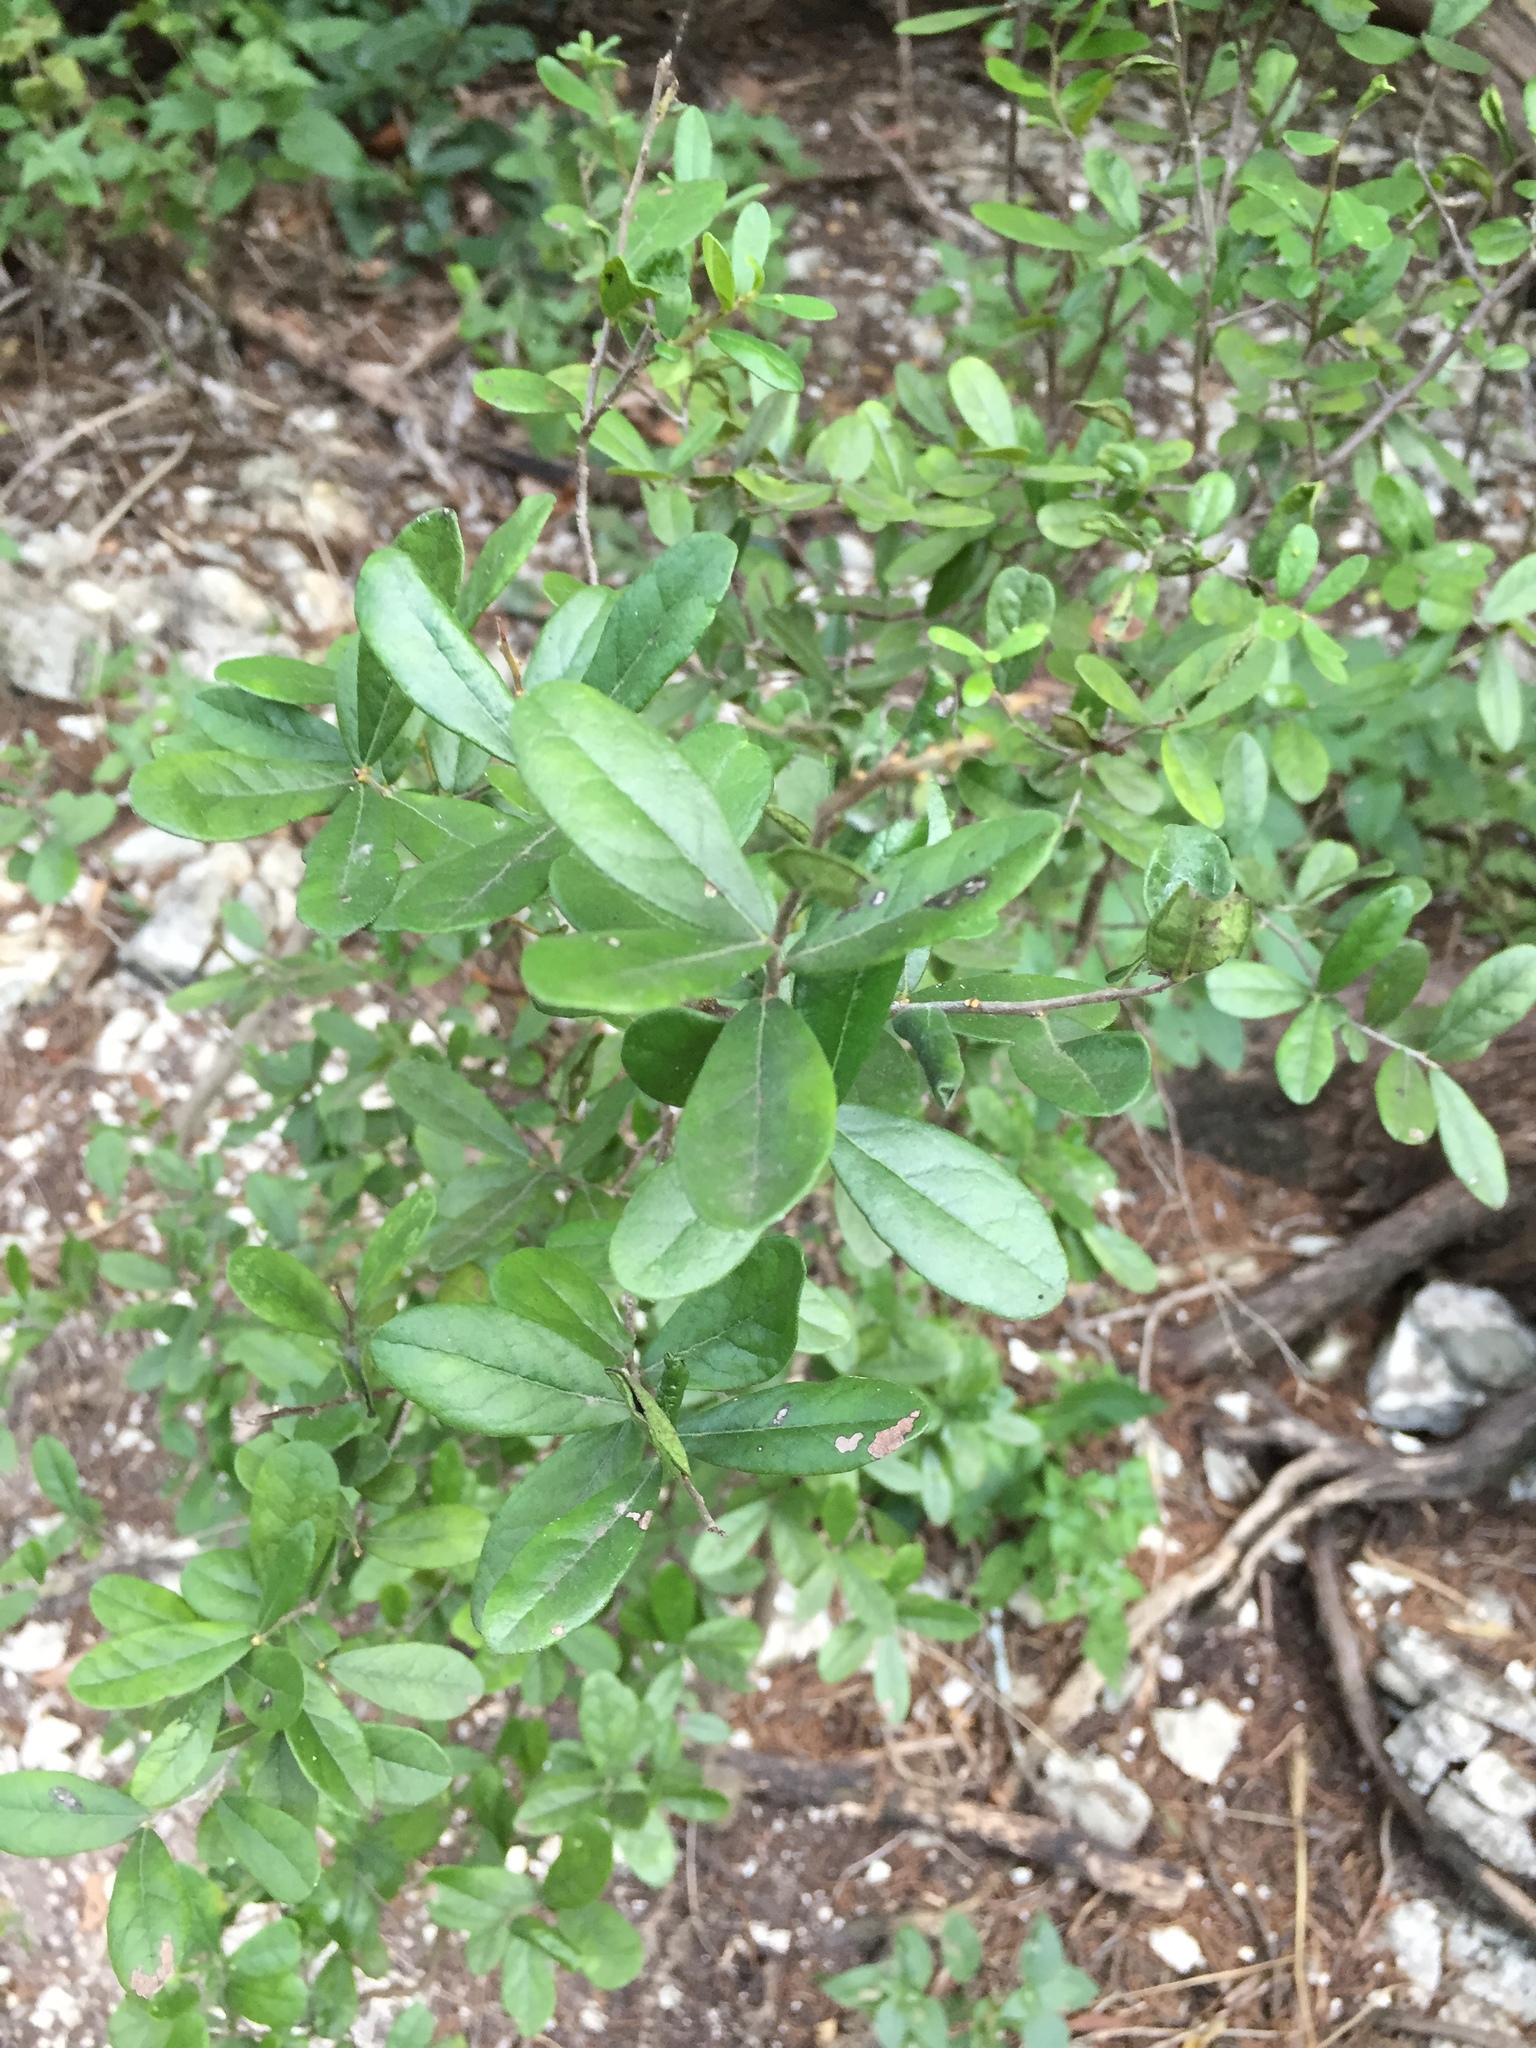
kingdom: Plantae
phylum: Tracheophyta
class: Magnoliopsida
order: Ericales
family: Ebenaceae
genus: Diospyros
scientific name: Diospyros texana
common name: Texas persimmon
